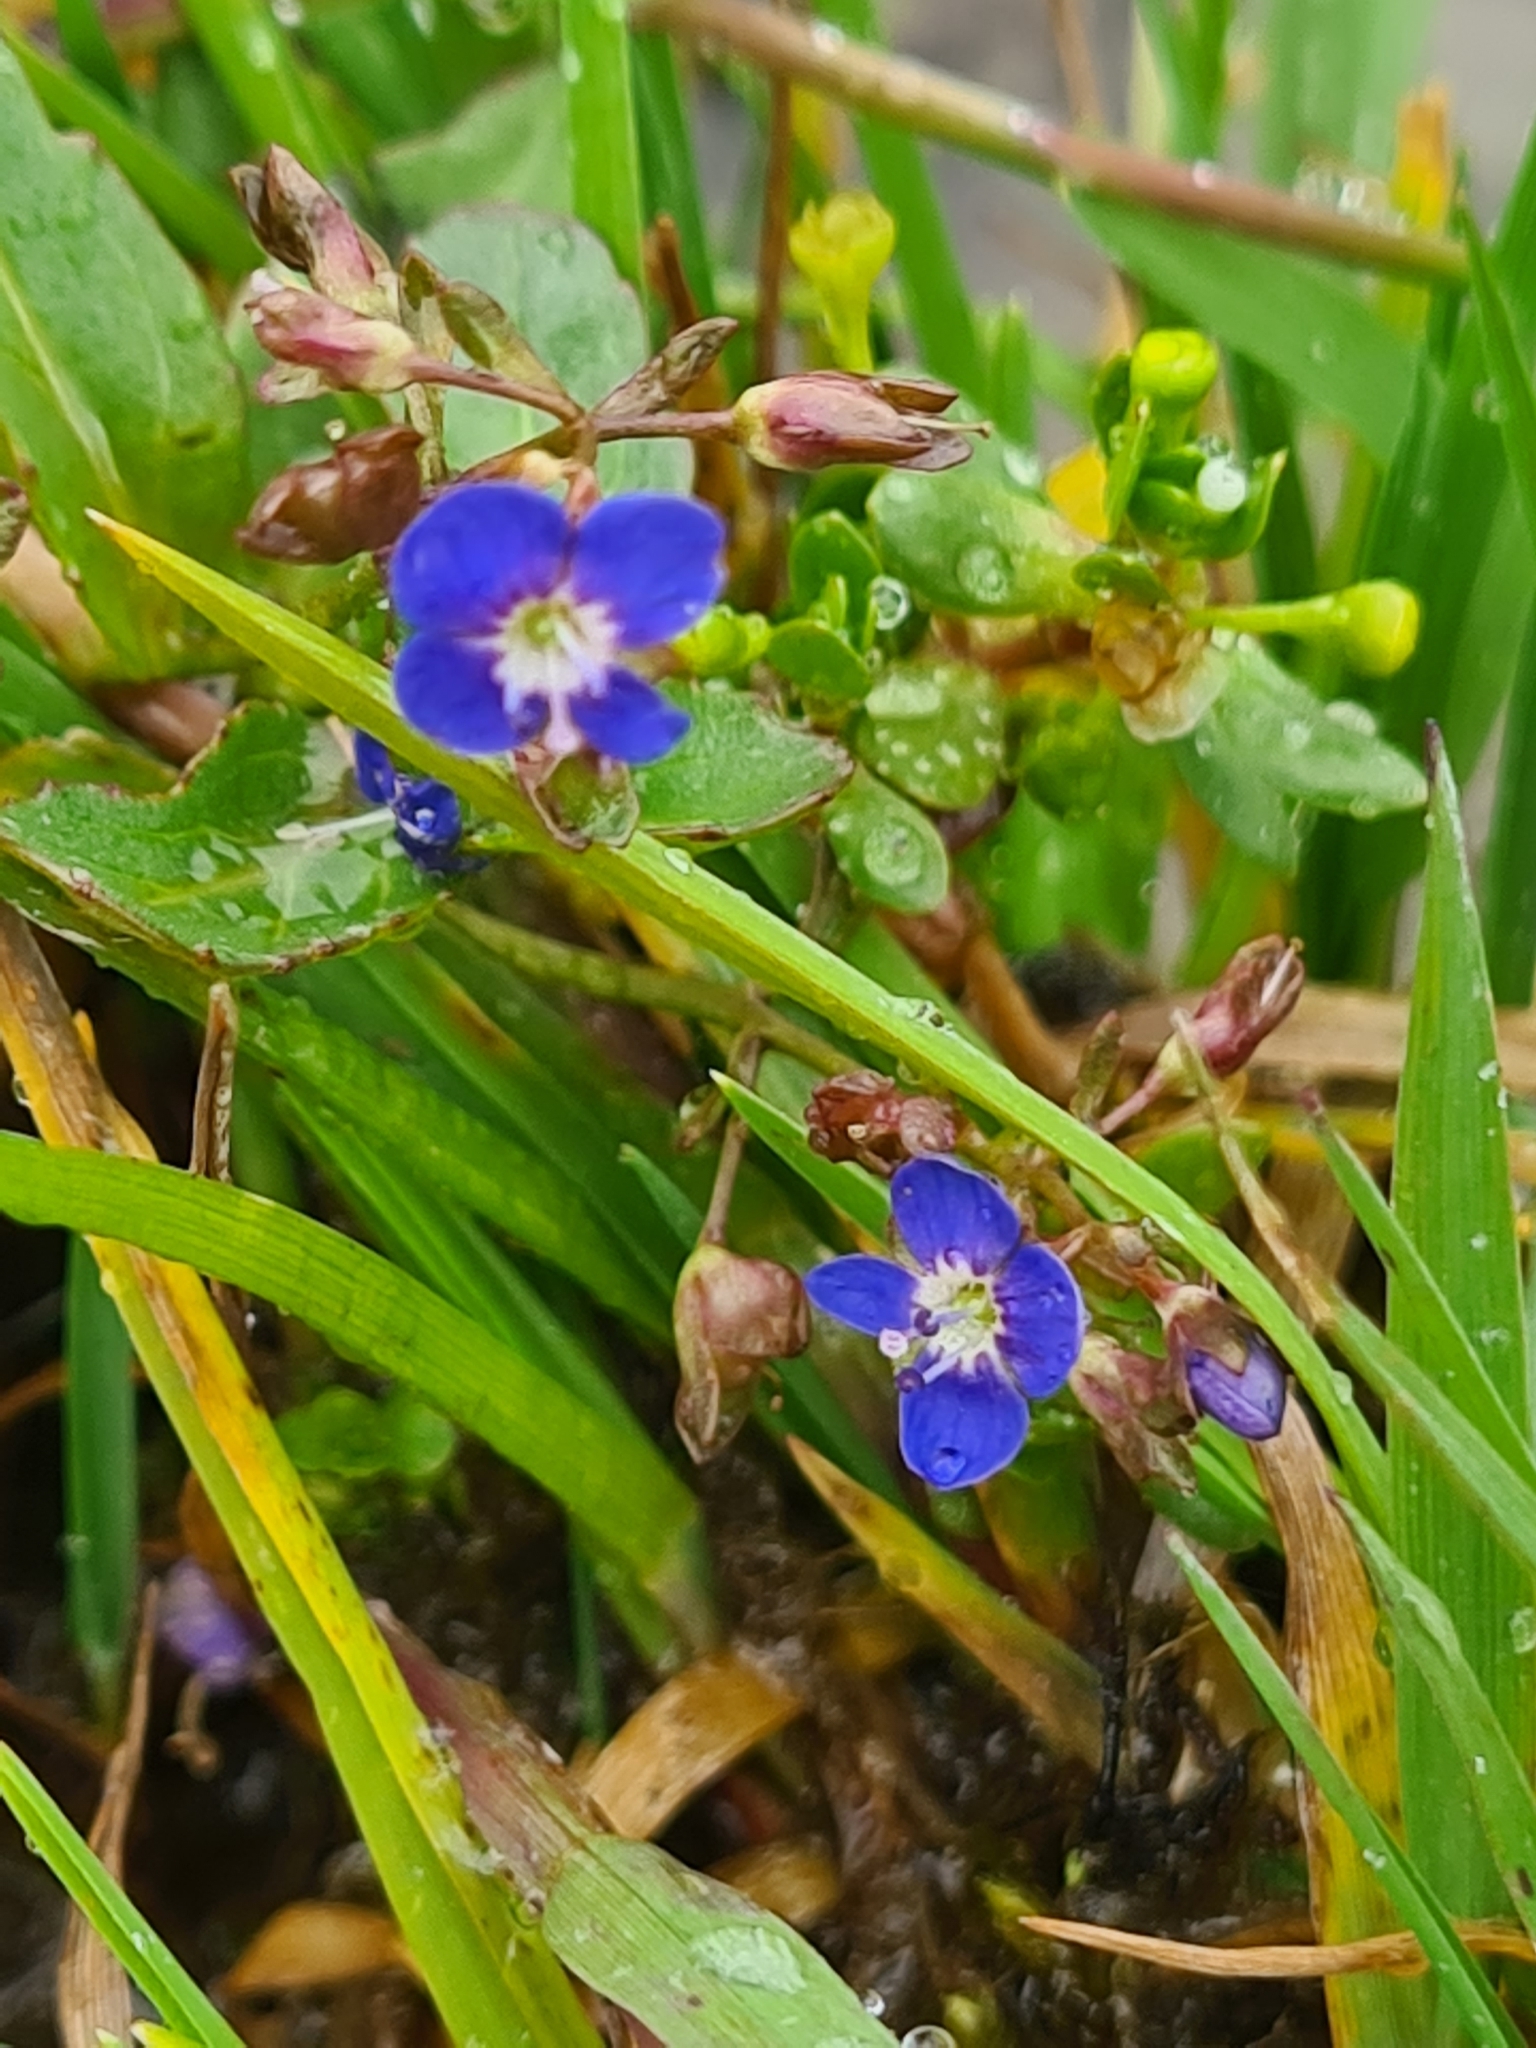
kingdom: Plantae
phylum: Tracheophyta
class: Magnoliopsida
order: Lamiales
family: Plantaginaceae
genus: Veronica
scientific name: Veronica beccabunga
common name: Brooklime
